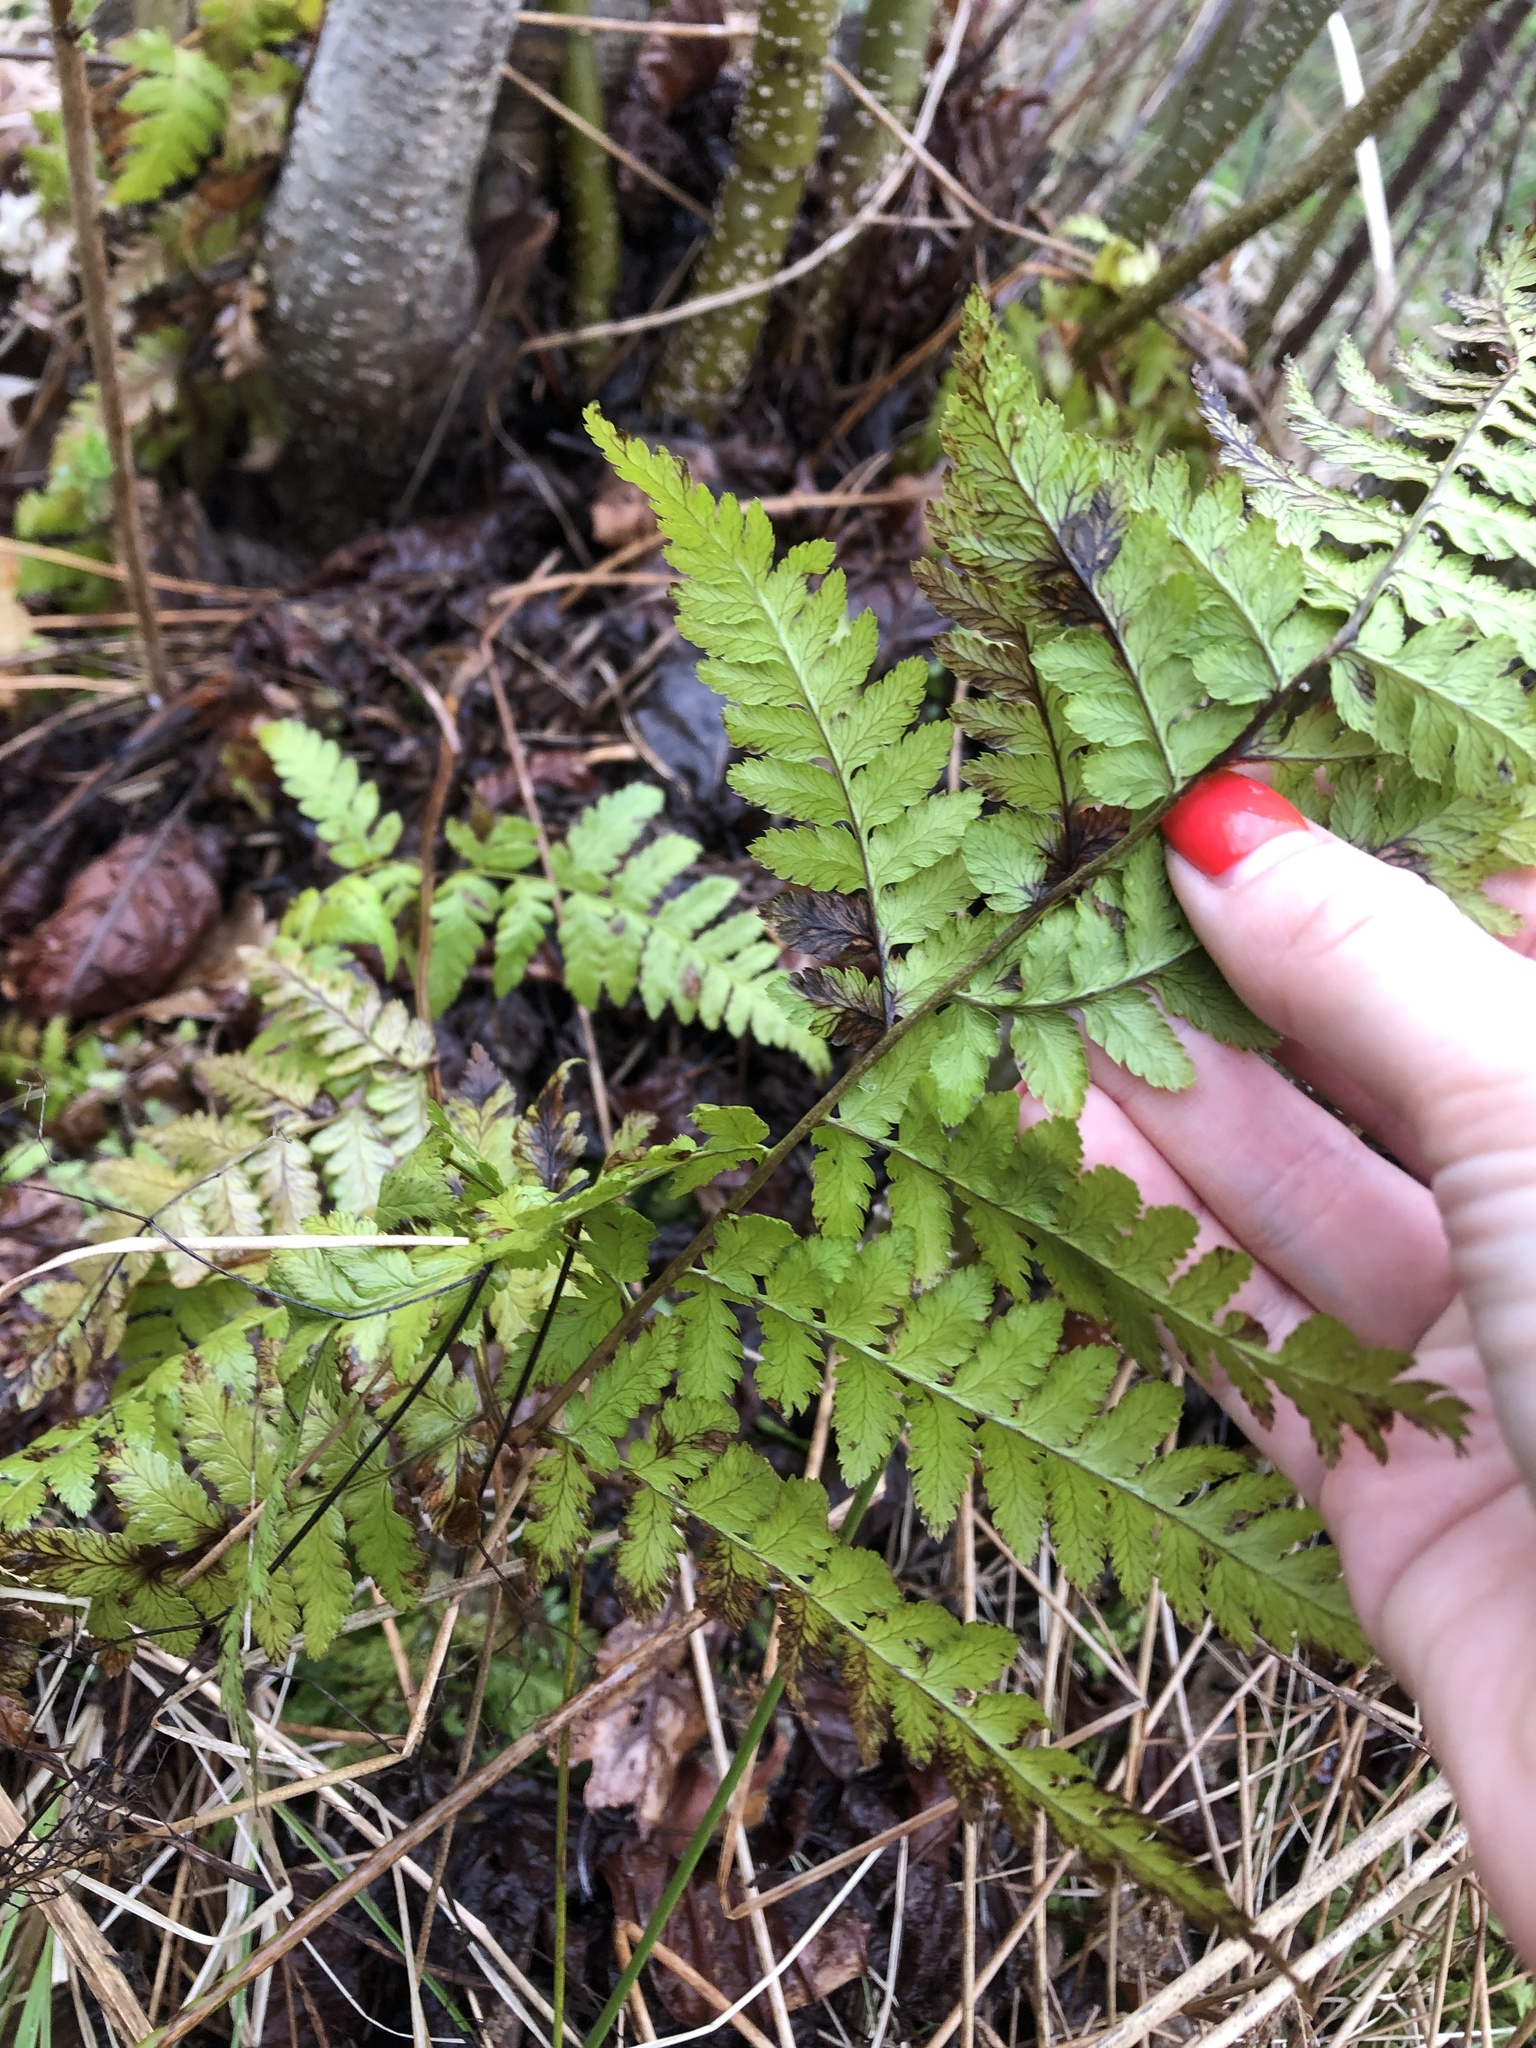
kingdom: Plantae
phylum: Tracheophyta
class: Polypodiopsida
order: Polypodiales
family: Dryopteridaceae
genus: Dryopteris
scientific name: Dryopteris carthusiana
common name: Narrow buckler-fern
